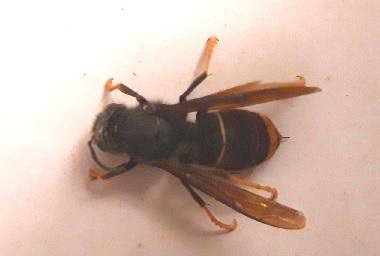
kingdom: Animalia
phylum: Arthropoda
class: Insecta
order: Hymenoptera
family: Vespidae
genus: Vespa
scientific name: Vespa velutina
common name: Asian hornet
